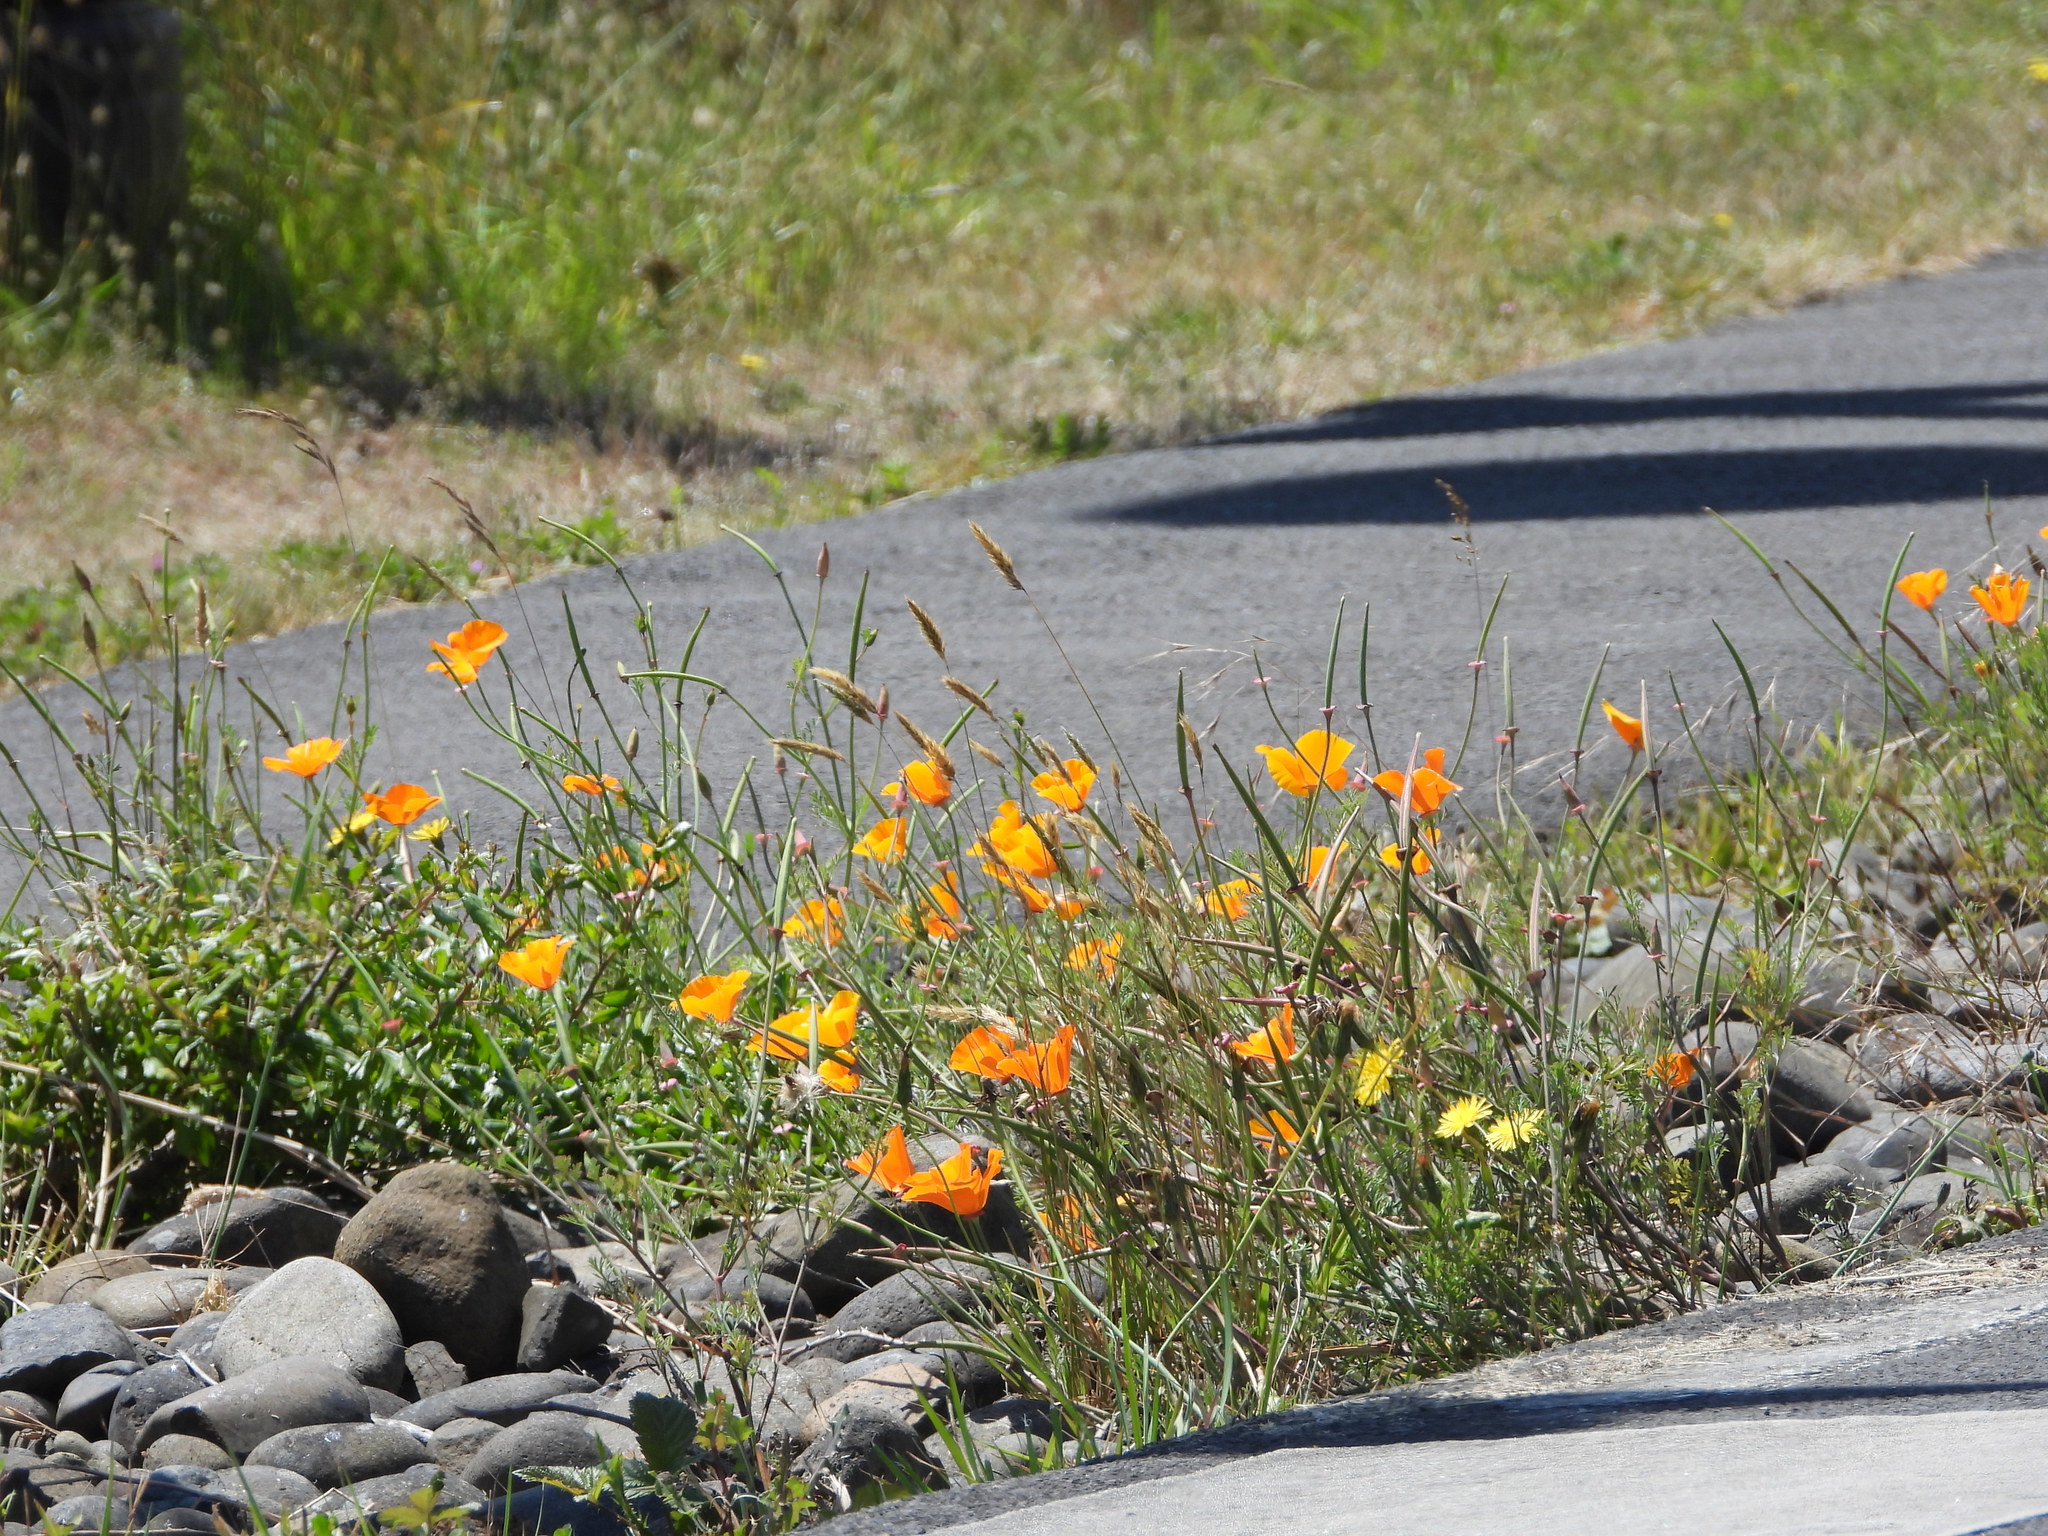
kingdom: Plantae
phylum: Tracheophyta
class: Magnoliopsida
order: Ranunculales
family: Papaveraceae
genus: Eschscholzia
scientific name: Eschscholzia californica
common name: California poppy
